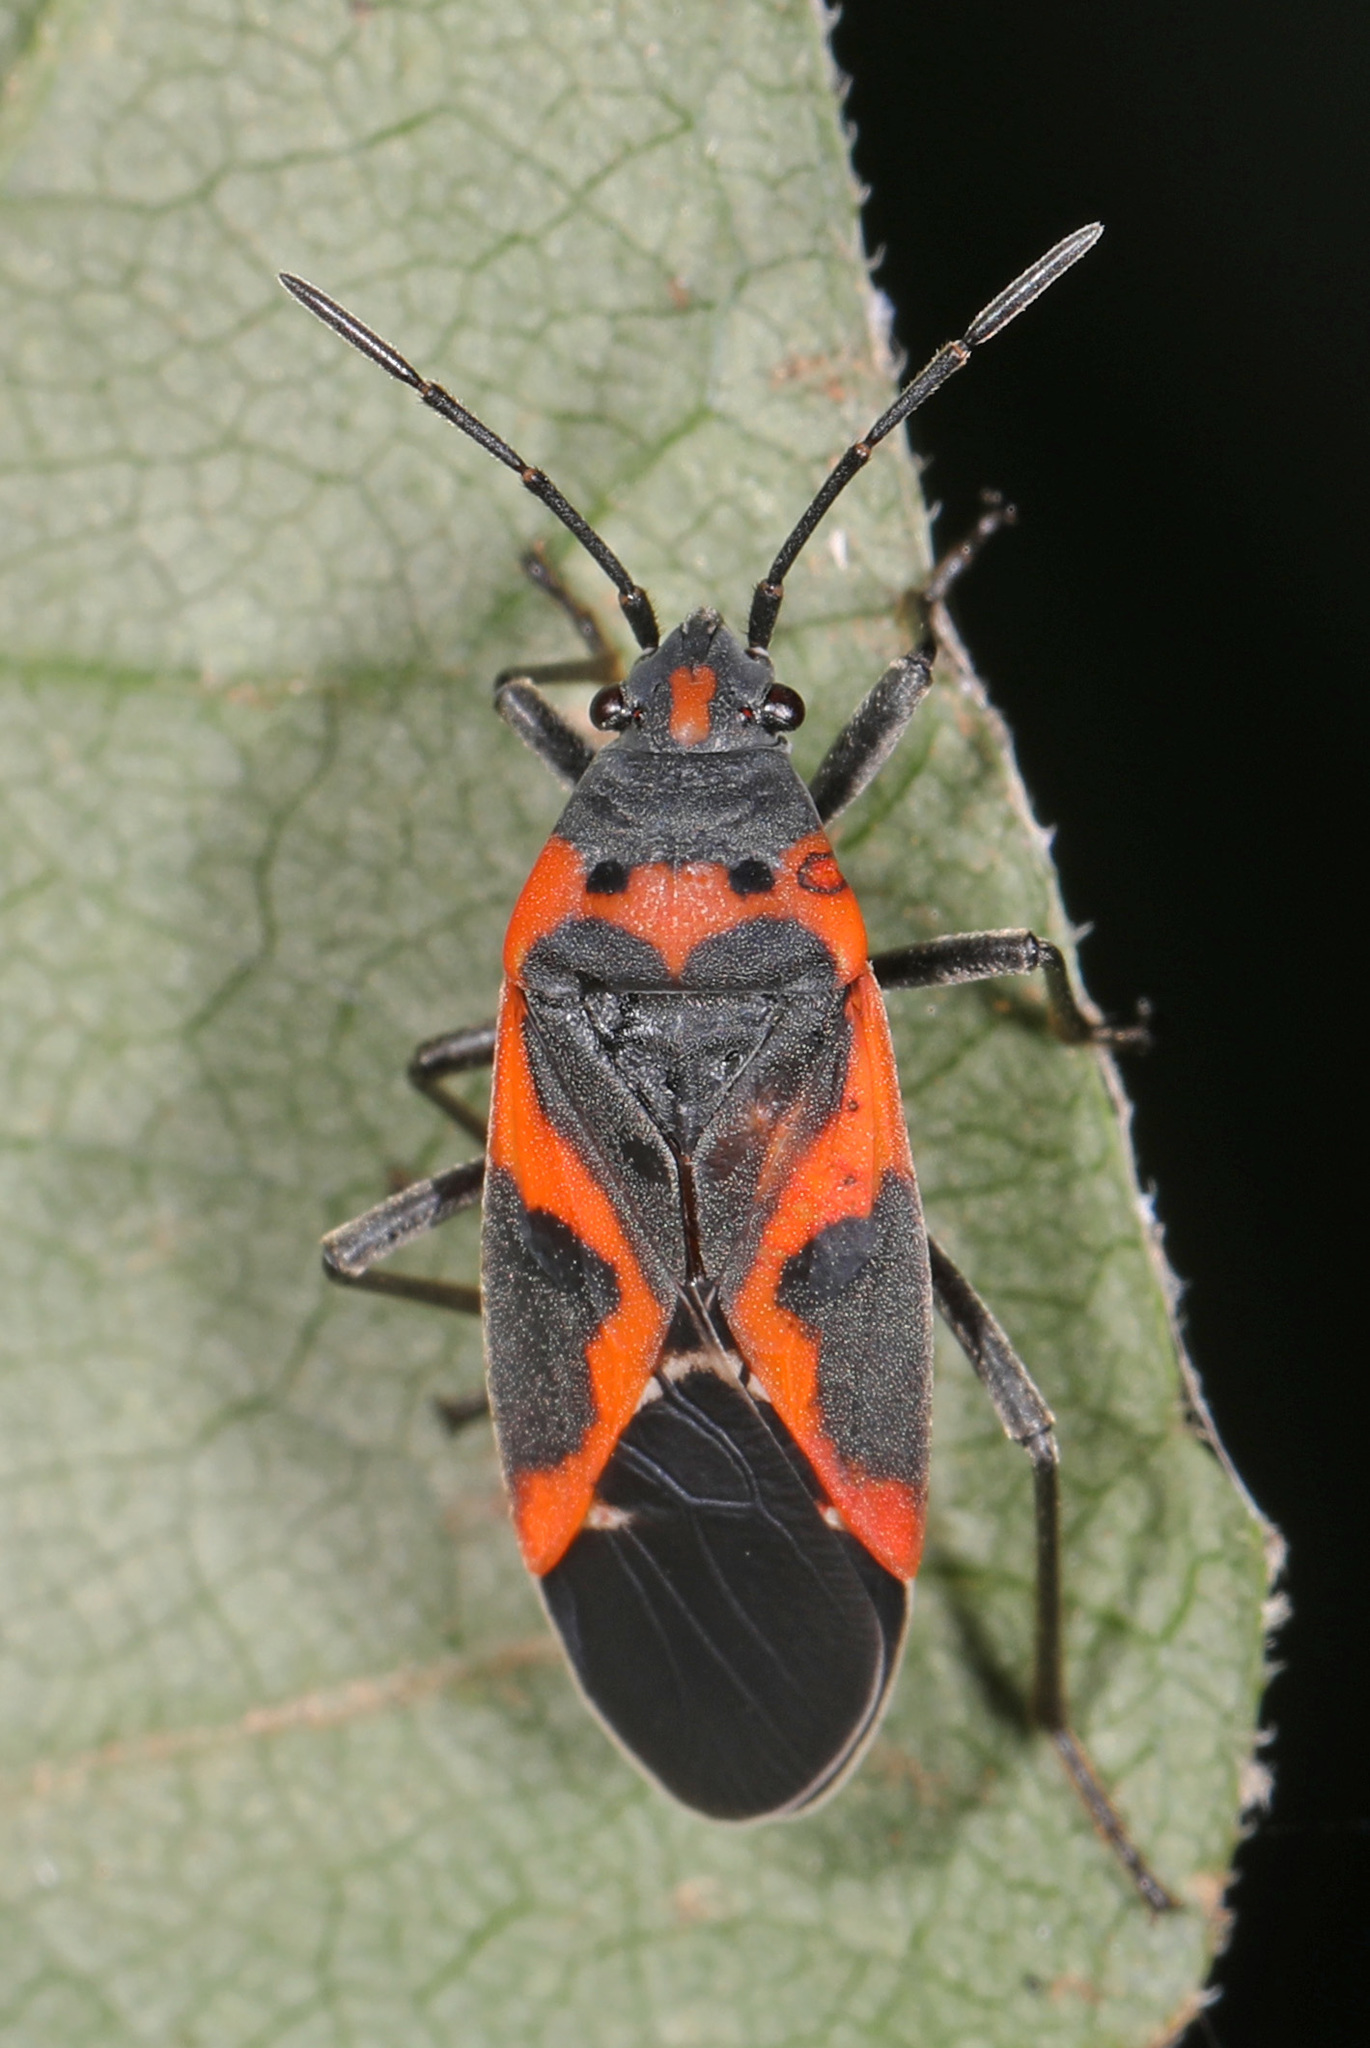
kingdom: Animalia
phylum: Arthropoda
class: Insecta
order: Hemiptera
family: Lygaeidae
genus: Lygaeus
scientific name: Lygaeus kalmii
